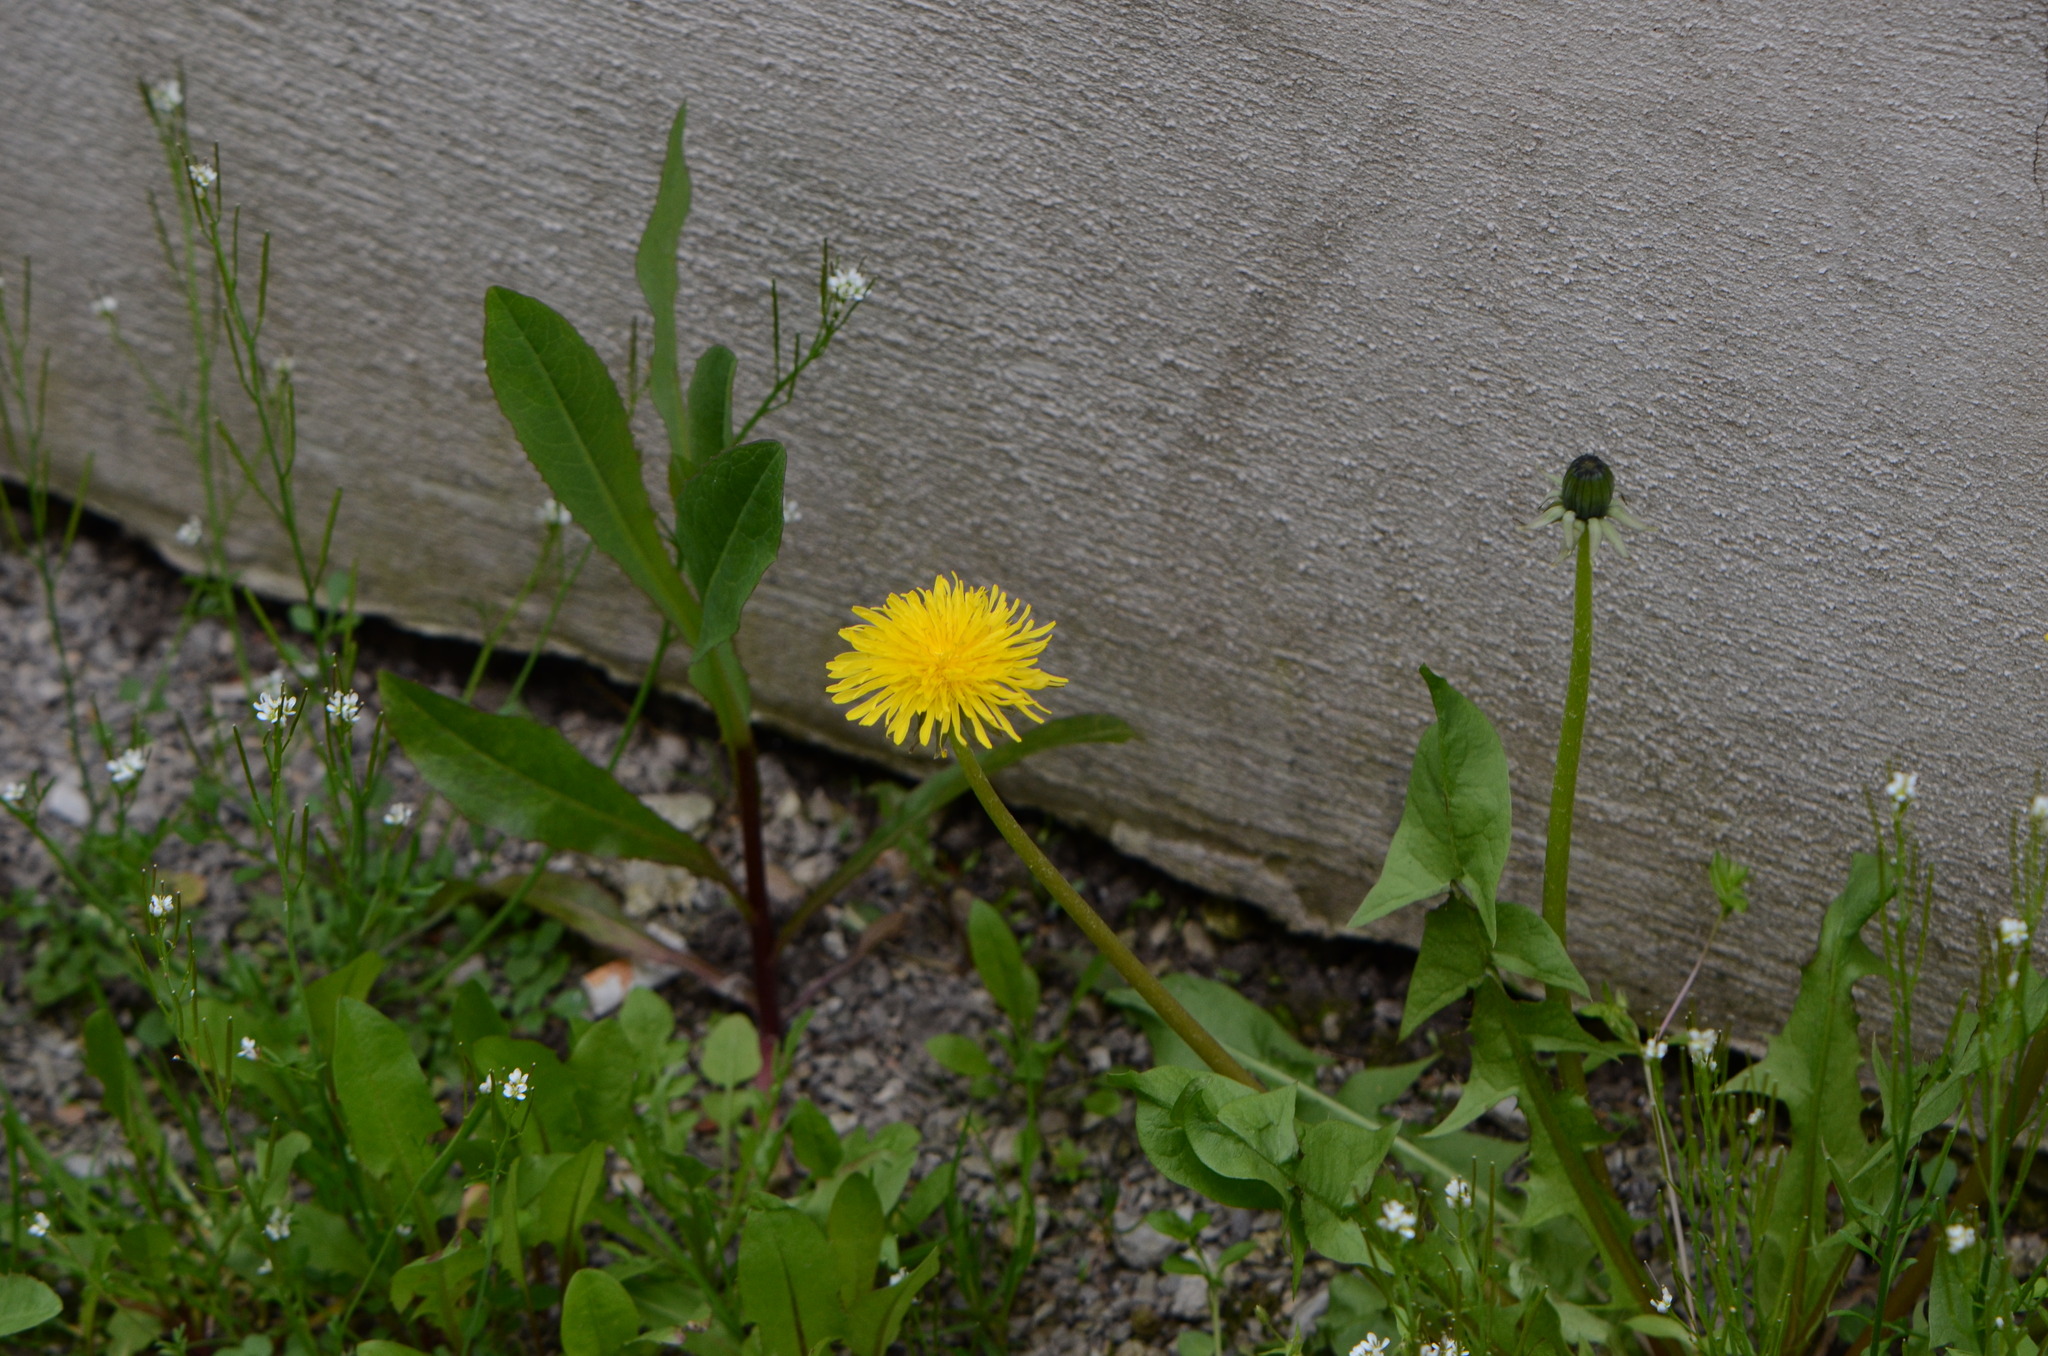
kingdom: Plantae
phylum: Tracheophyta
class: Magnoliopsida
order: Asterales
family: Asteraceae
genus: Lactuca
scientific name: Lactuca serriola
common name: Prickly lettuce
